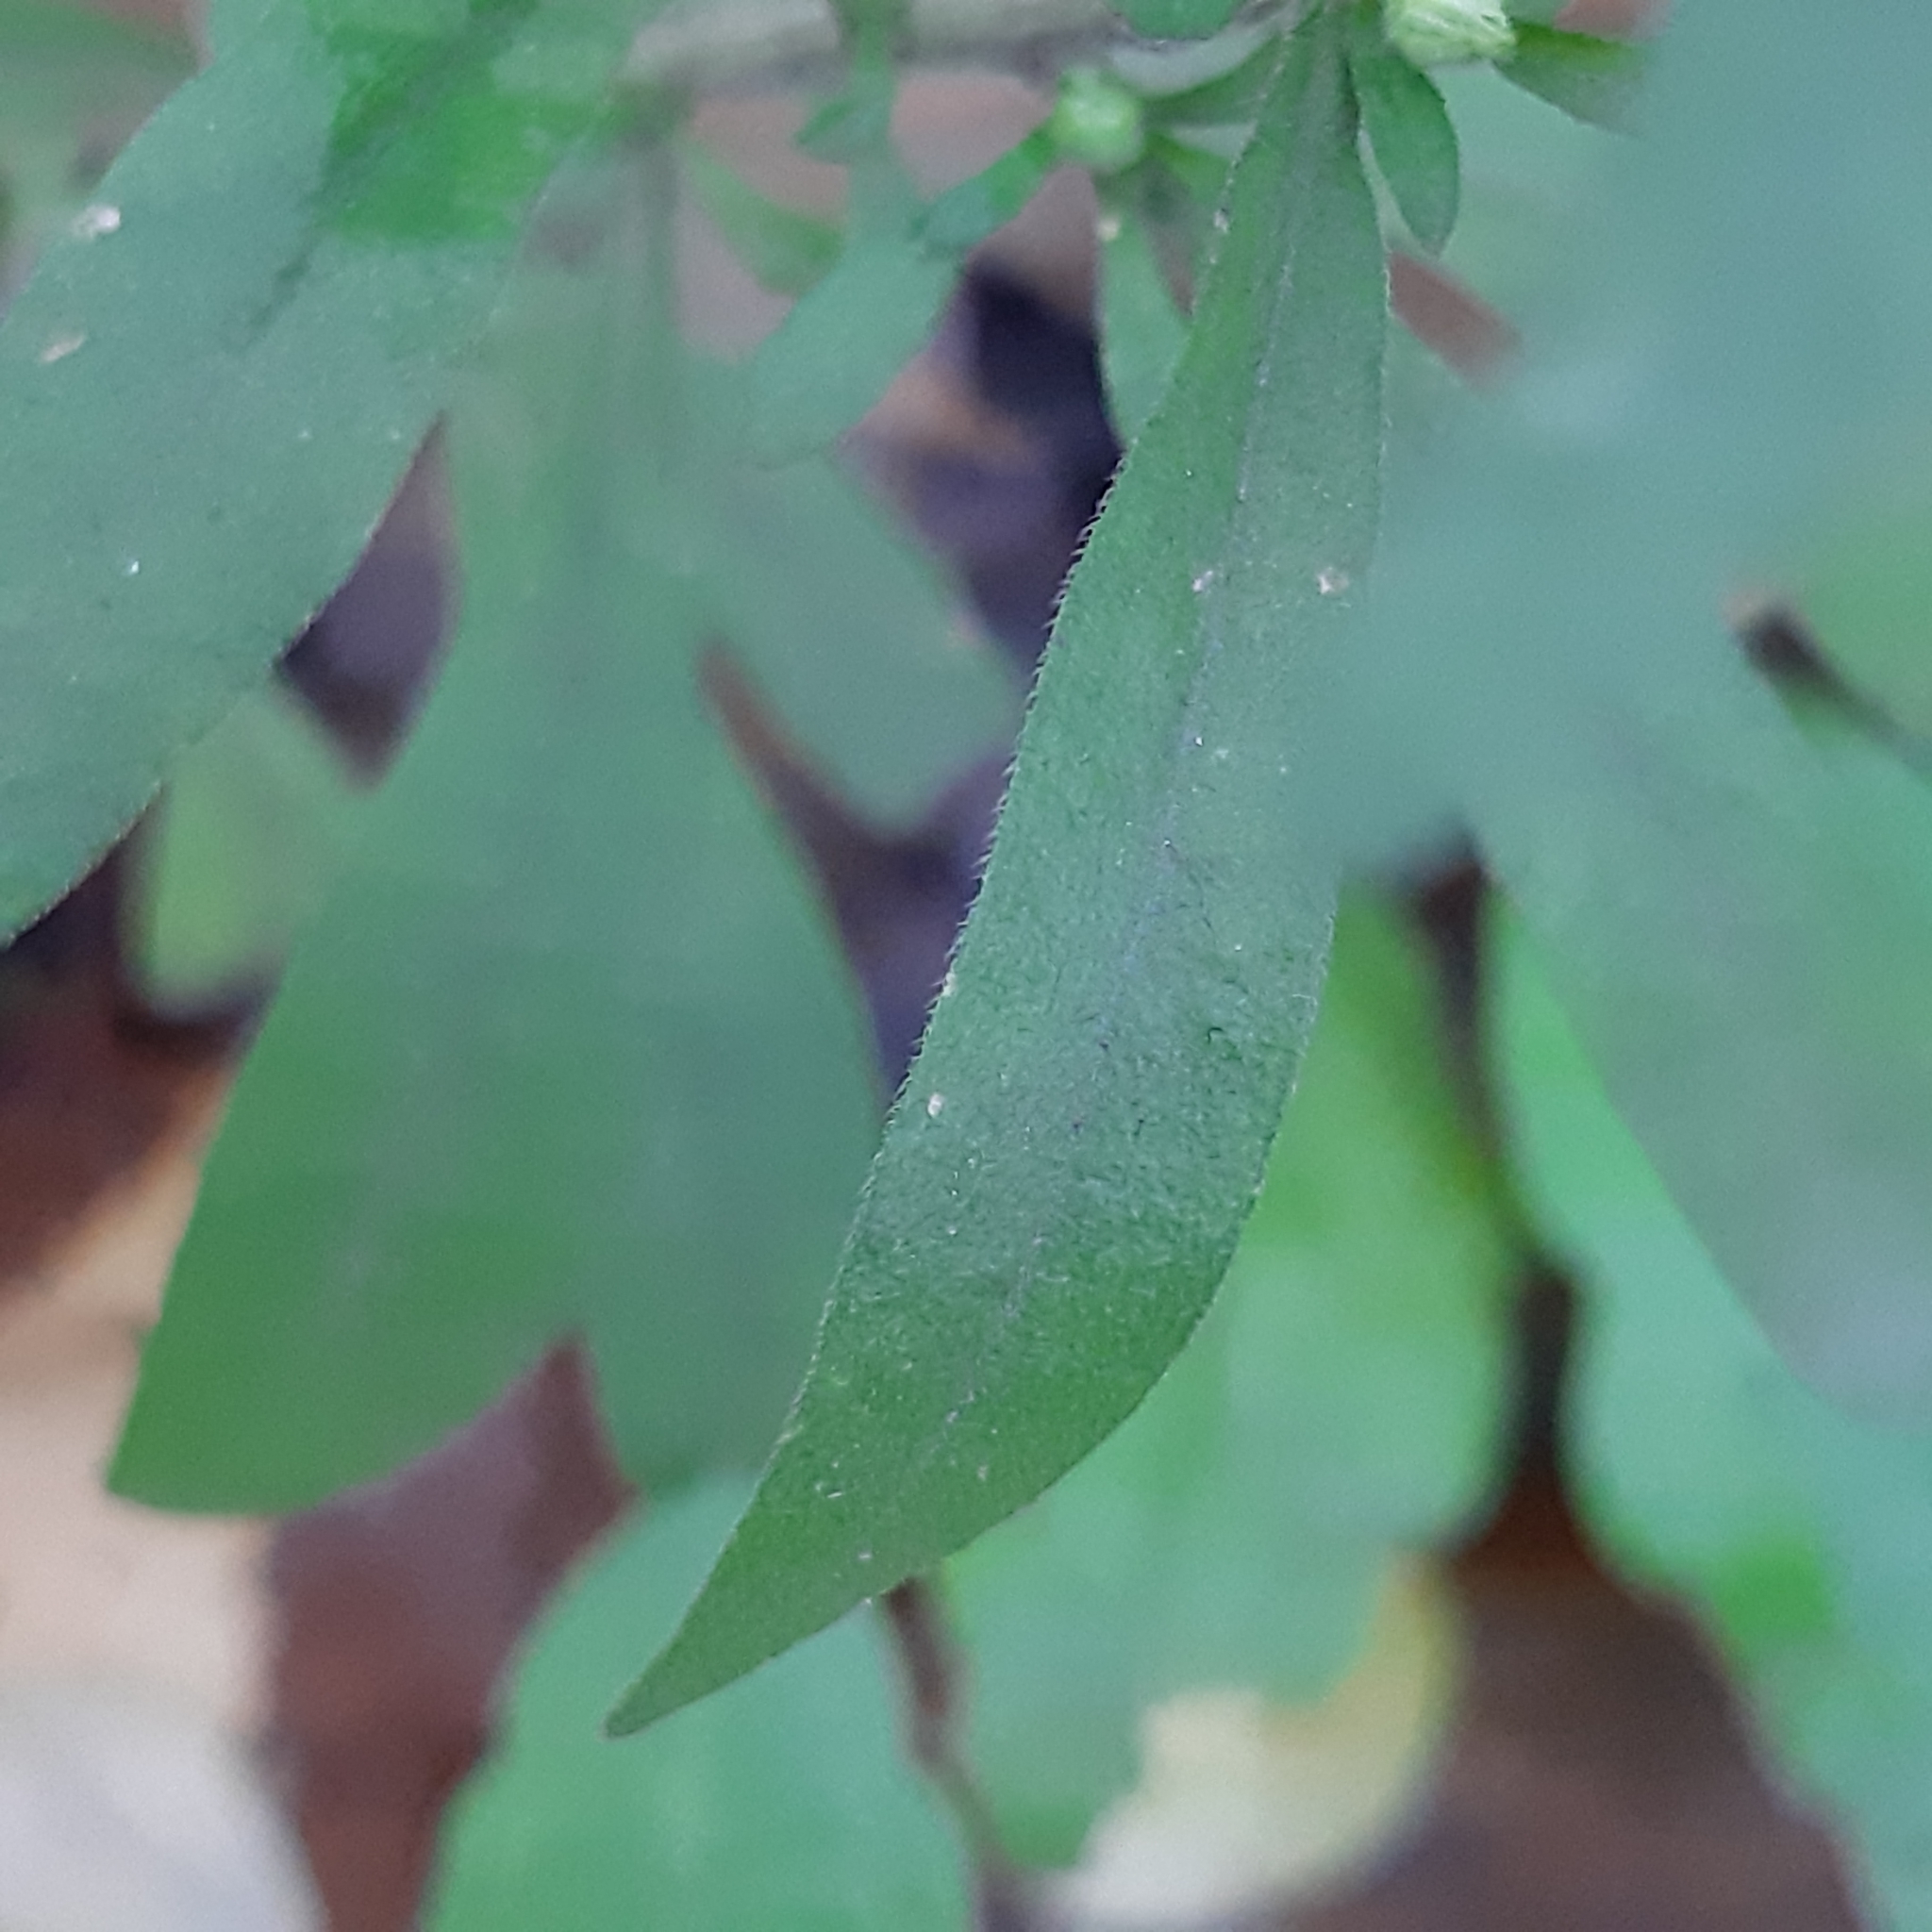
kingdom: Plantae
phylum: Tracheophyta
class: Magnoliopsida
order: Asterales
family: Asteraceae
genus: Erigeron
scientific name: Erigeron sumatrensis
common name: Daisy
